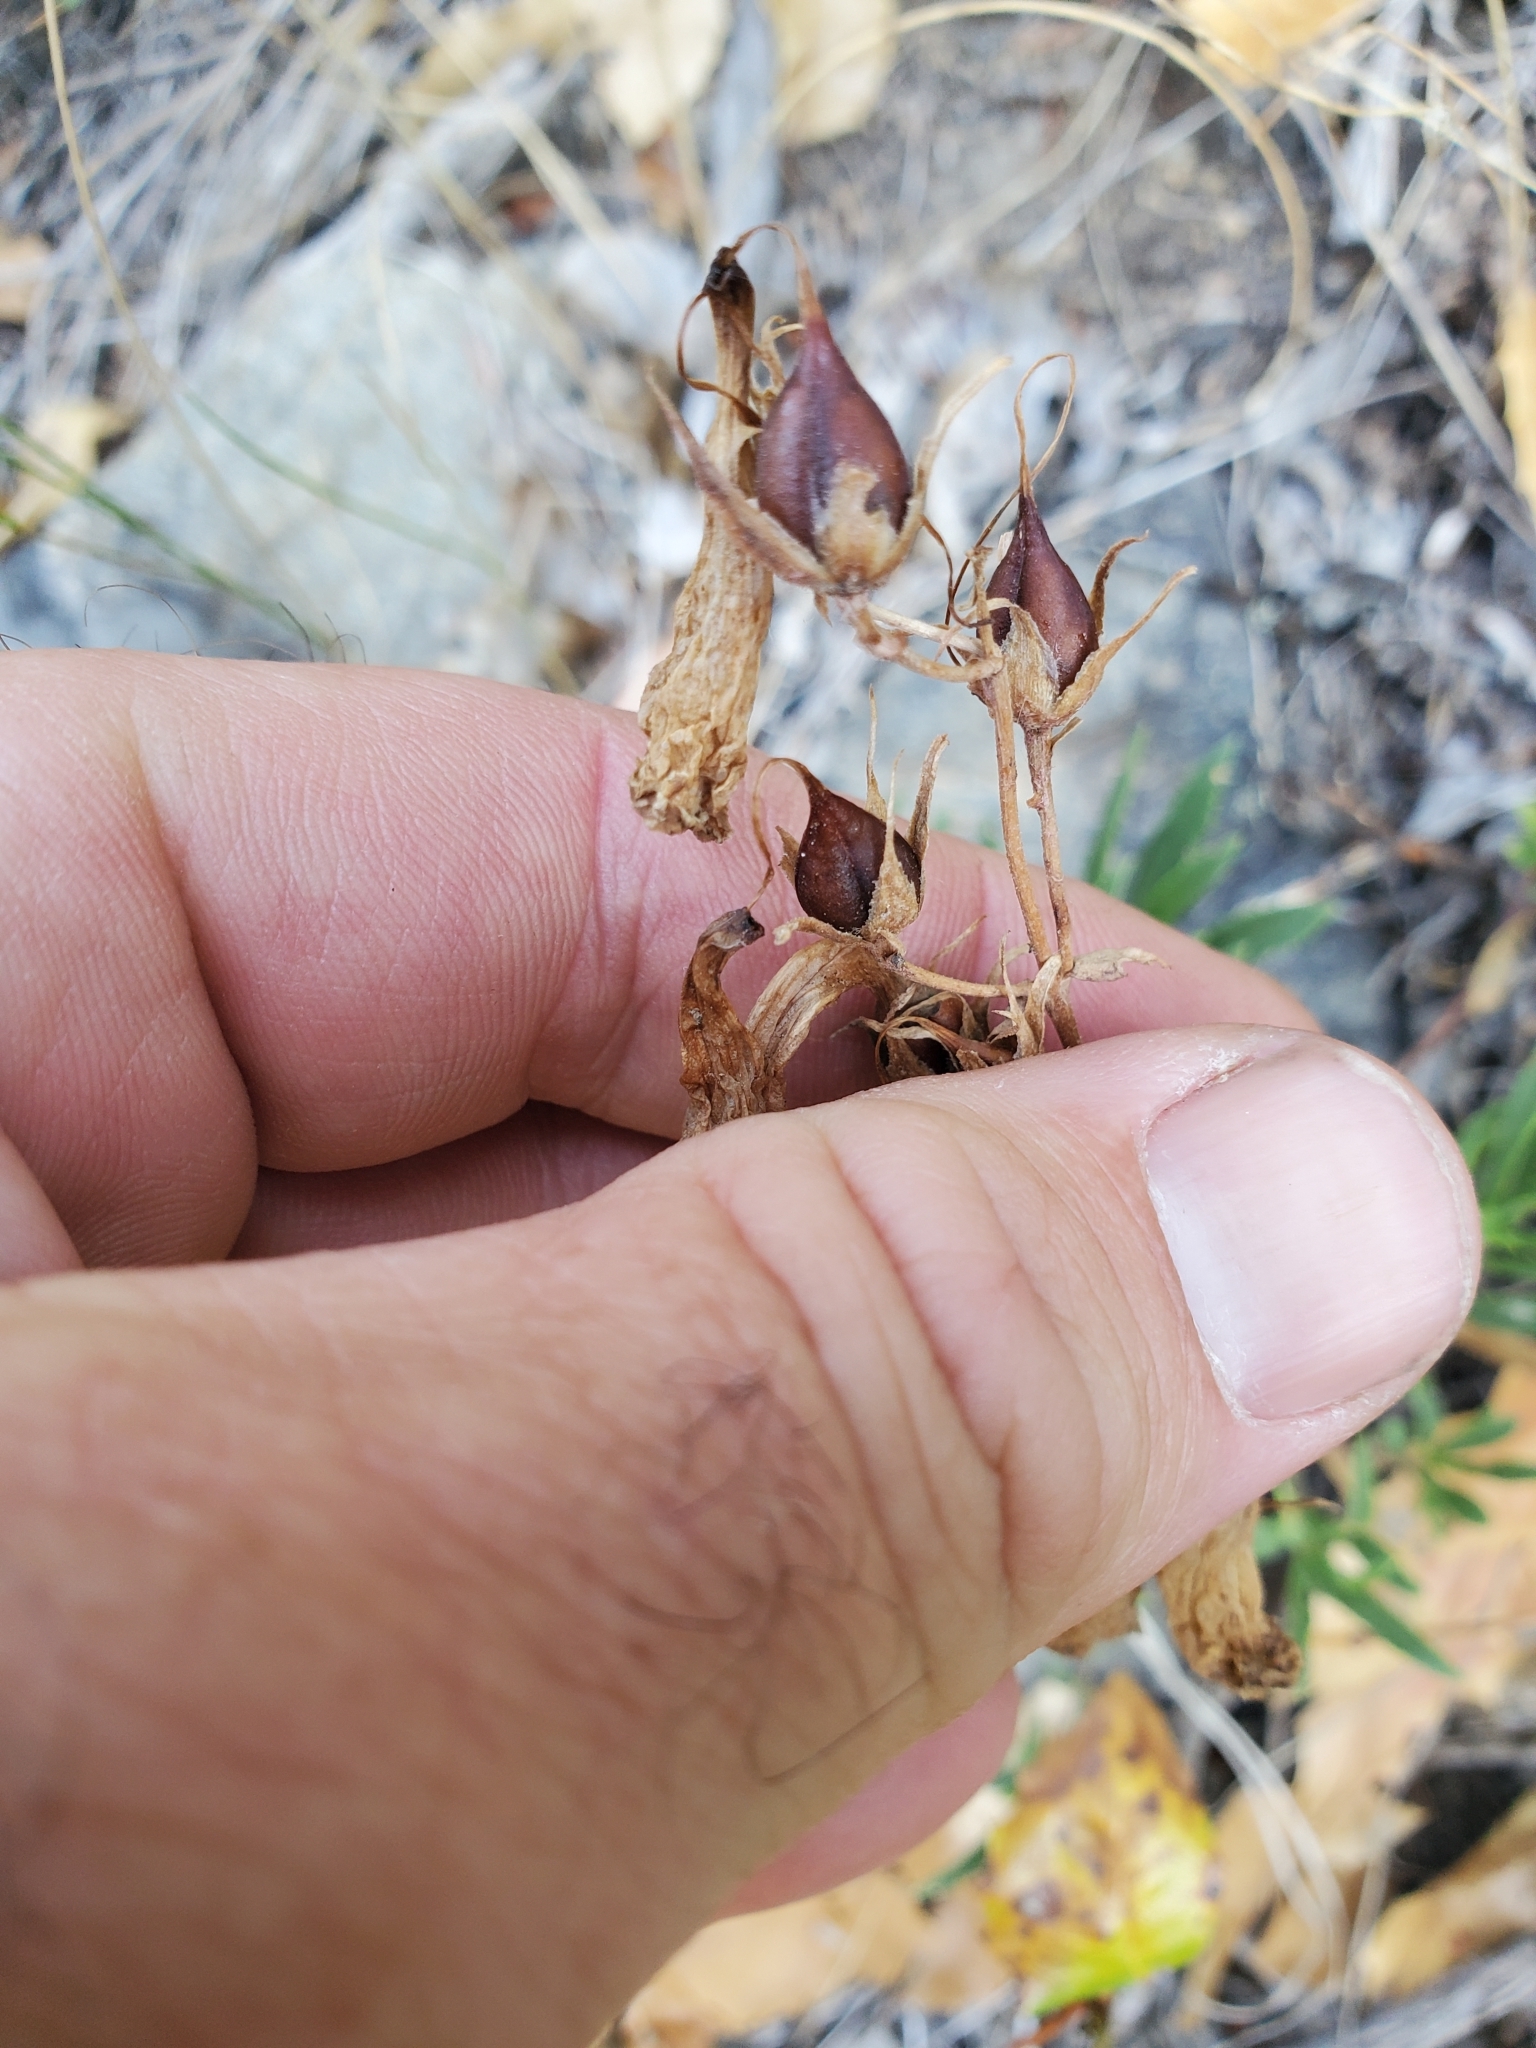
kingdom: Plantae
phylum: Tracheophyta
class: Magnoliopsida
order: Lamiales
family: Plantaginaceae
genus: Penstemon
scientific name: Penstemon fruticosus
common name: Bush penstemon
